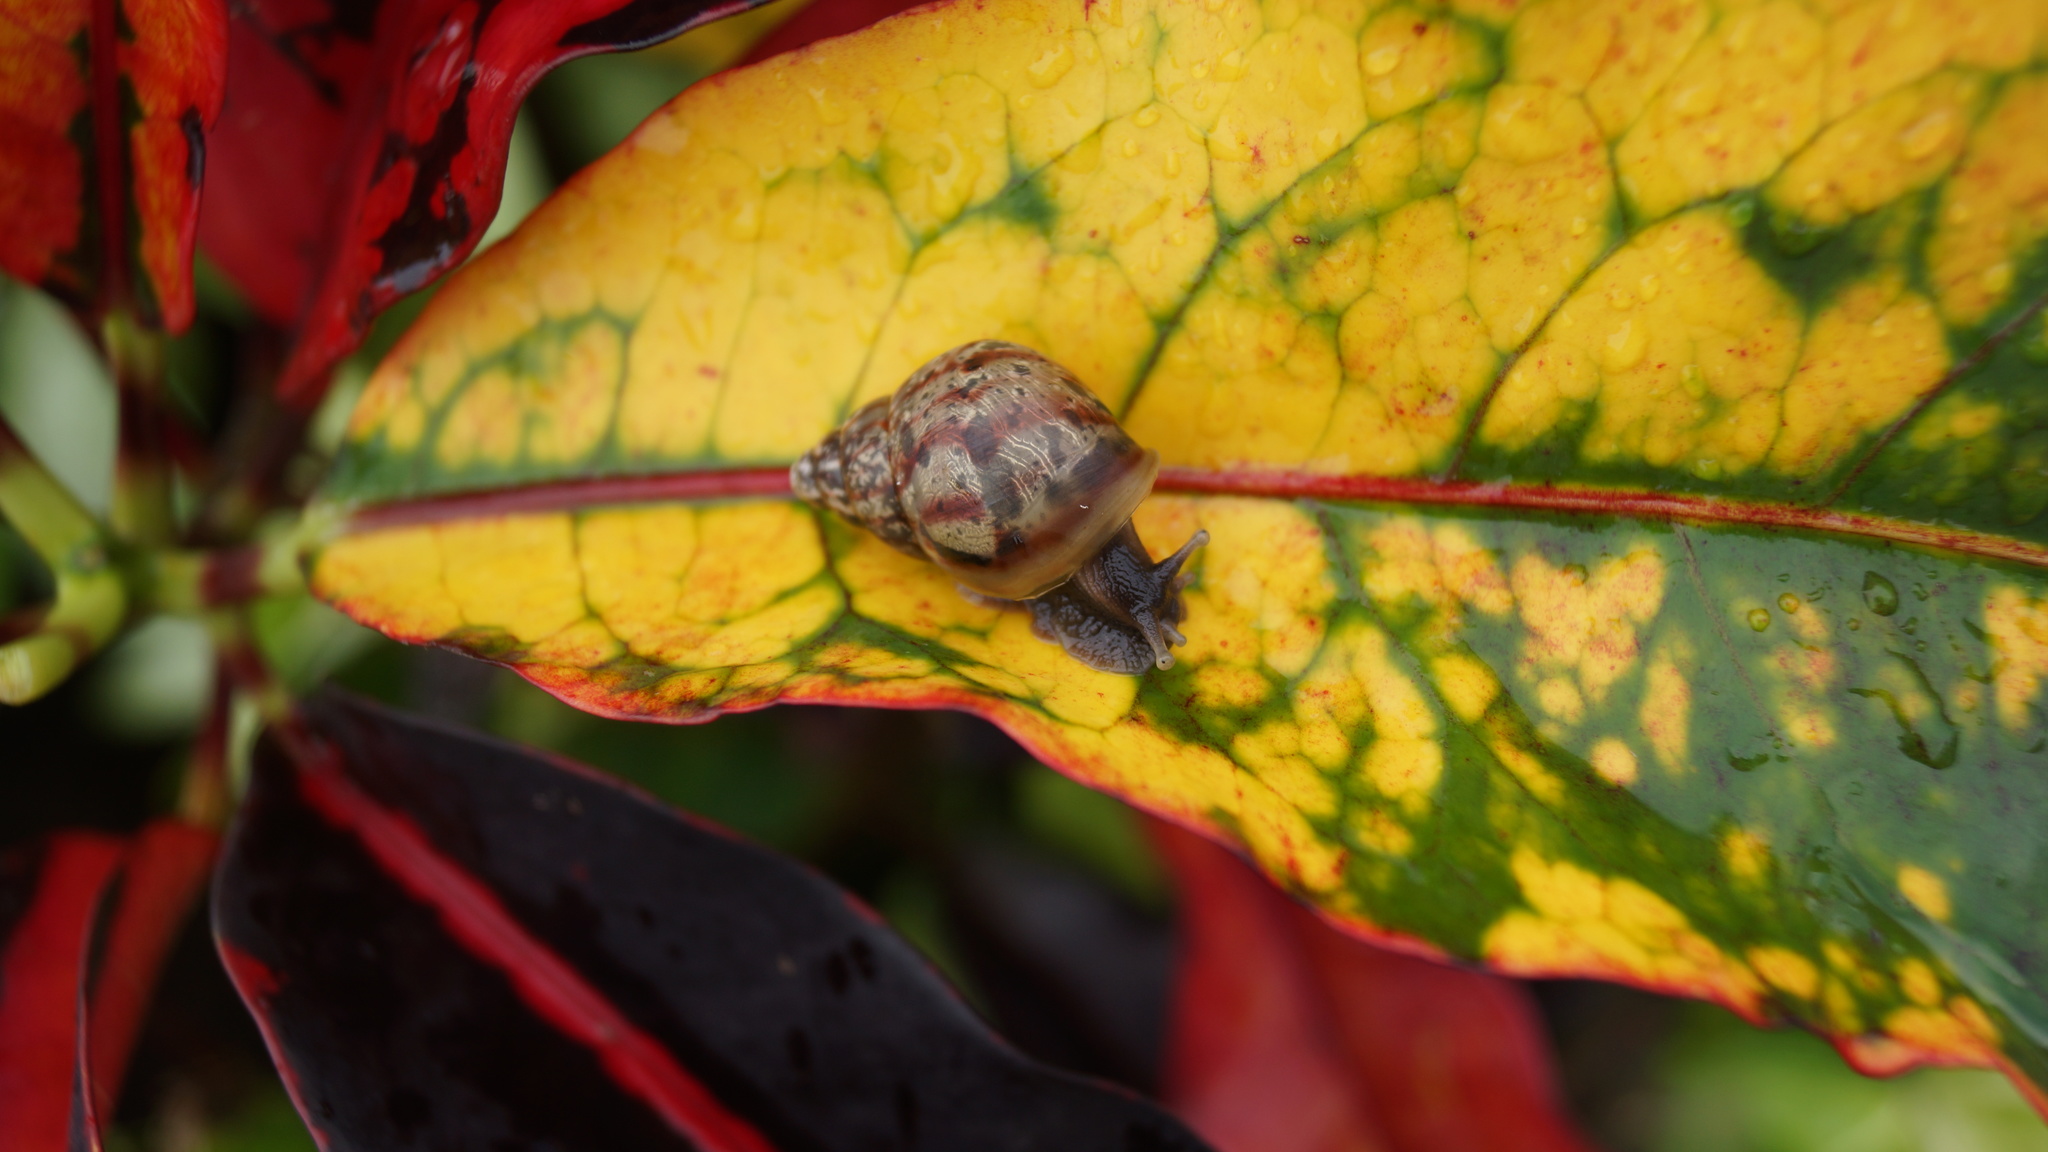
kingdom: Animalia
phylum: Mollusca
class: Gastropoda
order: Stylommatophora
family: Achatinidae
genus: Lissachatina
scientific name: Lissachatina fulica
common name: Giant african snail
